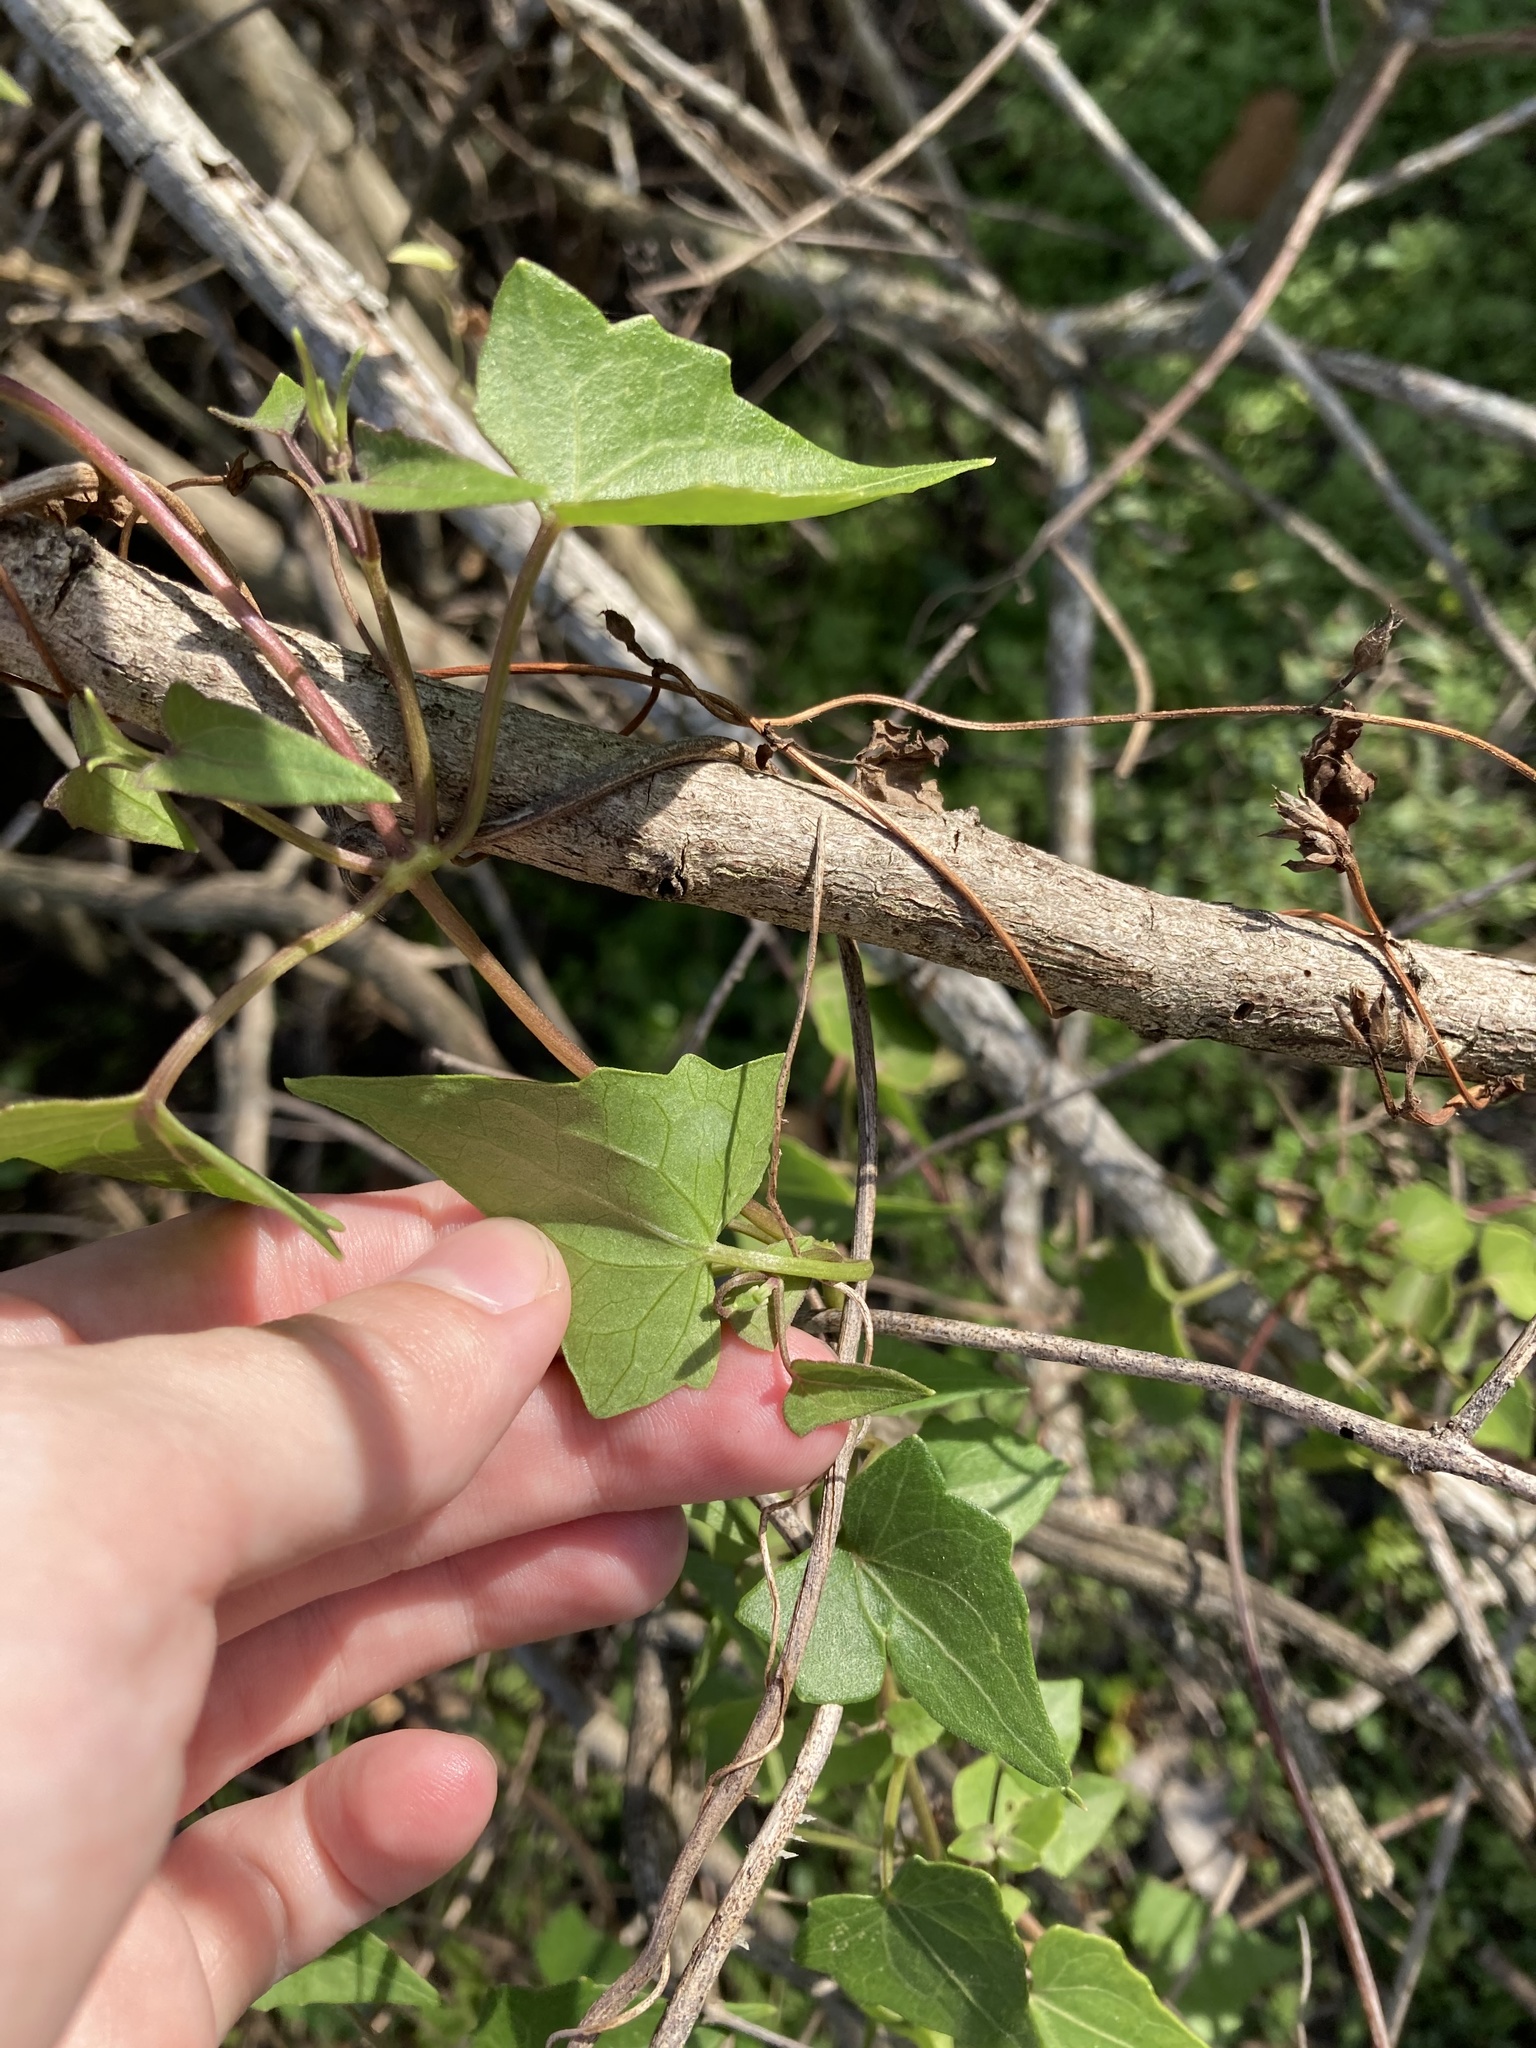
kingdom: Plantae
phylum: Tracheophyta
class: Magnoliopsida
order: Asterales
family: Asteraceae
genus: Mikania
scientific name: Mikania scandens
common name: Climbing hempvine
